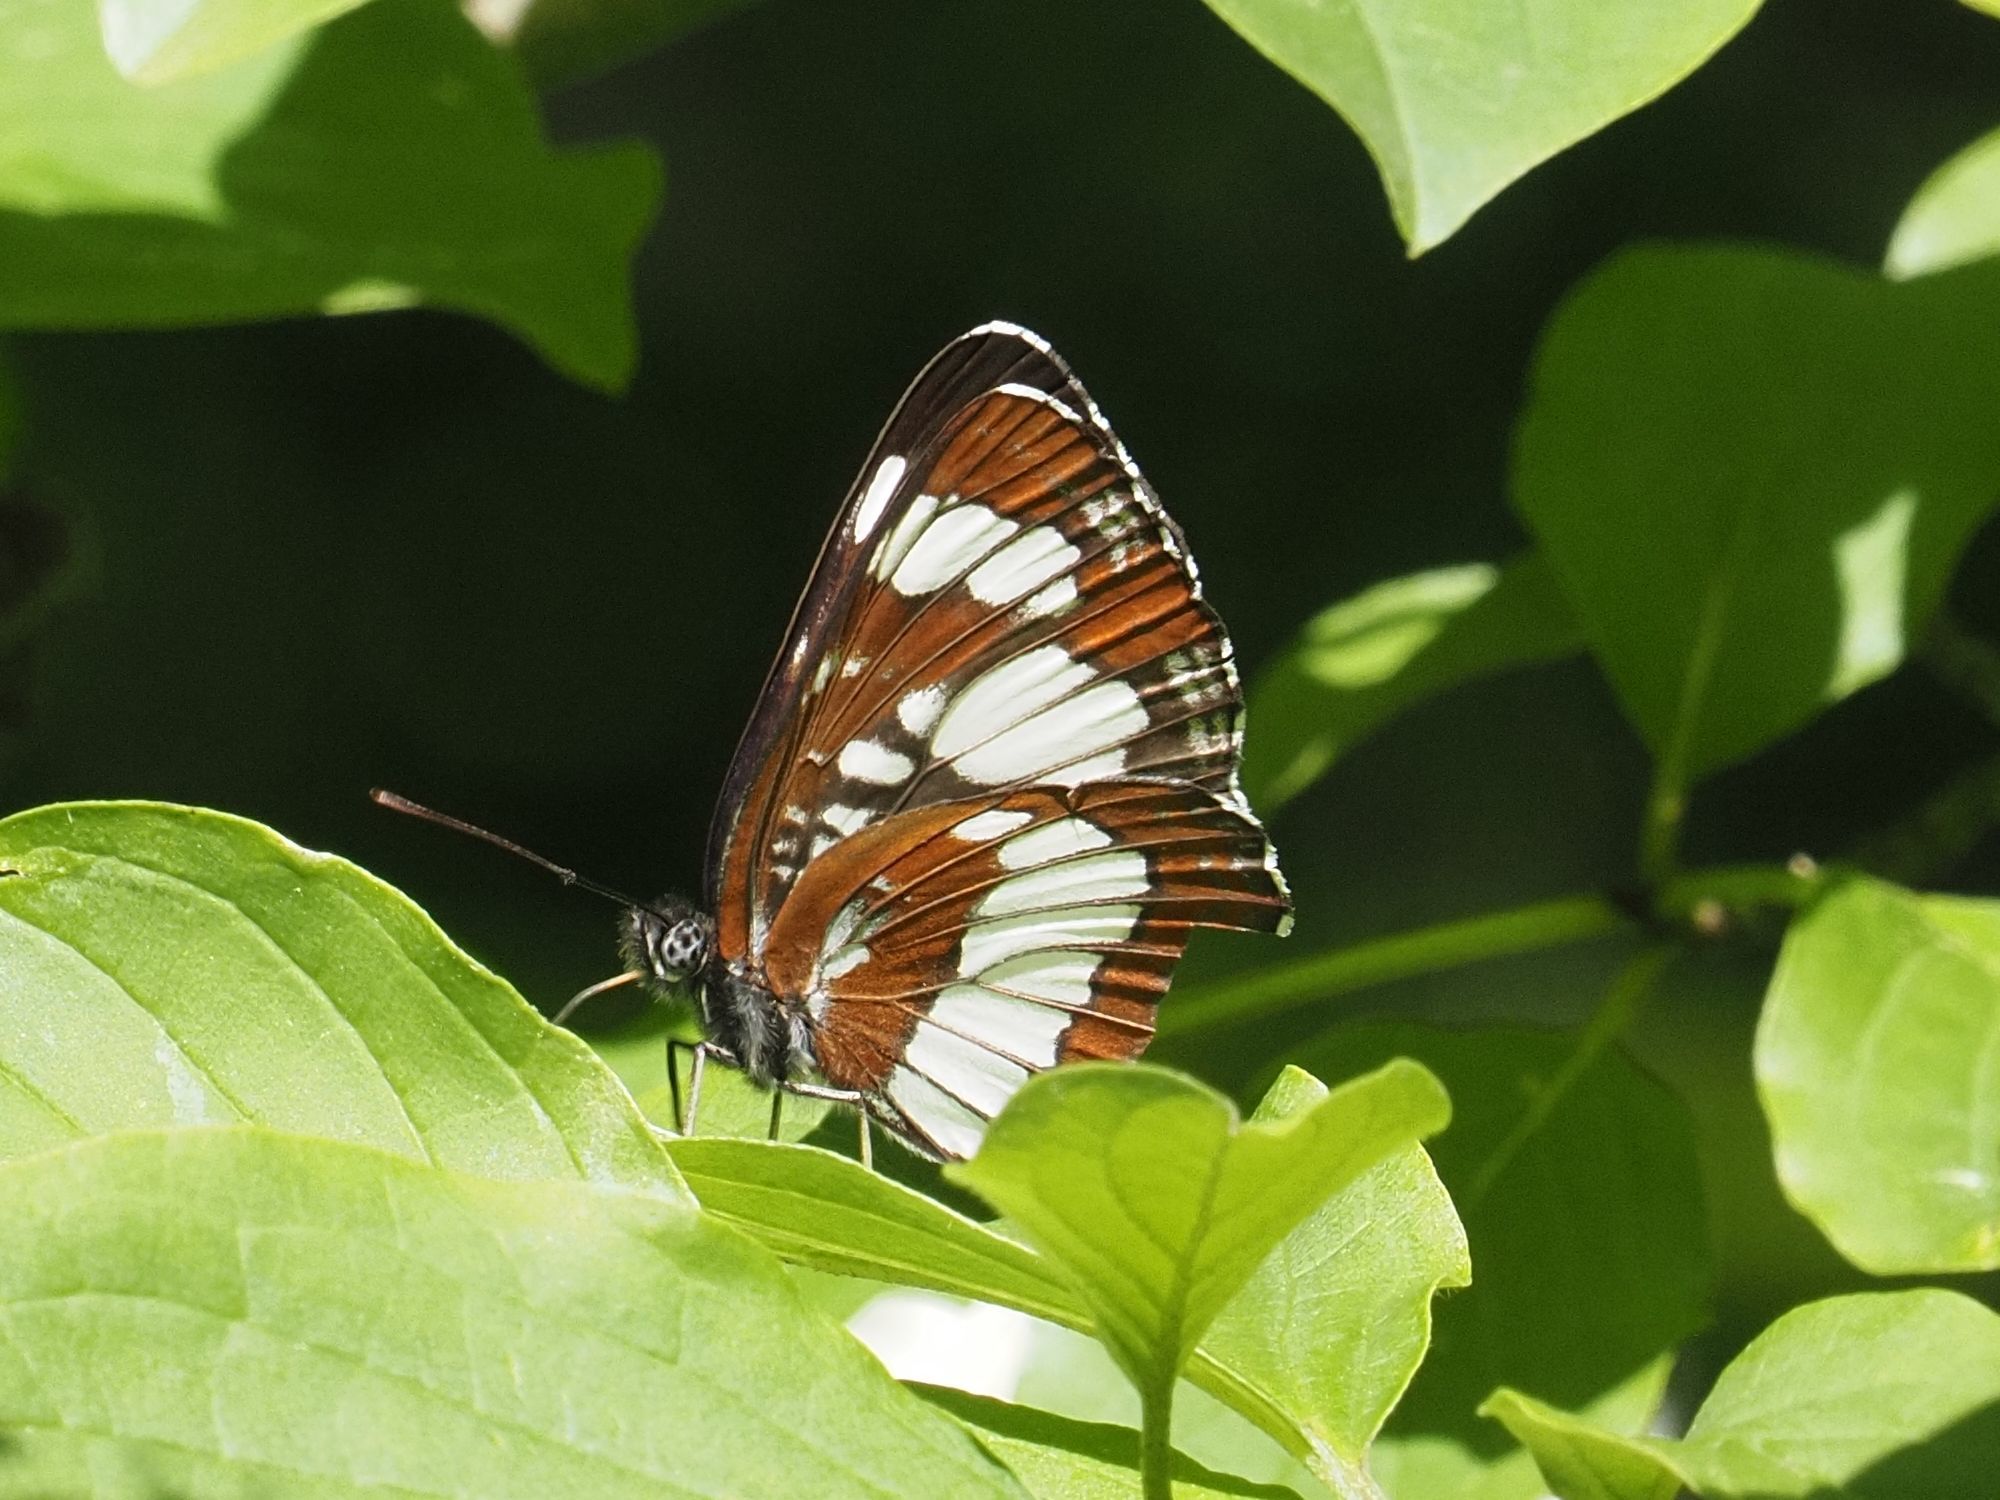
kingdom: Animalia
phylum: Arthropoda
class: Insecta
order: Lepidoptera
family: Nymphalidae
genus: Neptis
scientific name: Neptis rivularis
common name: Hungarian glider
